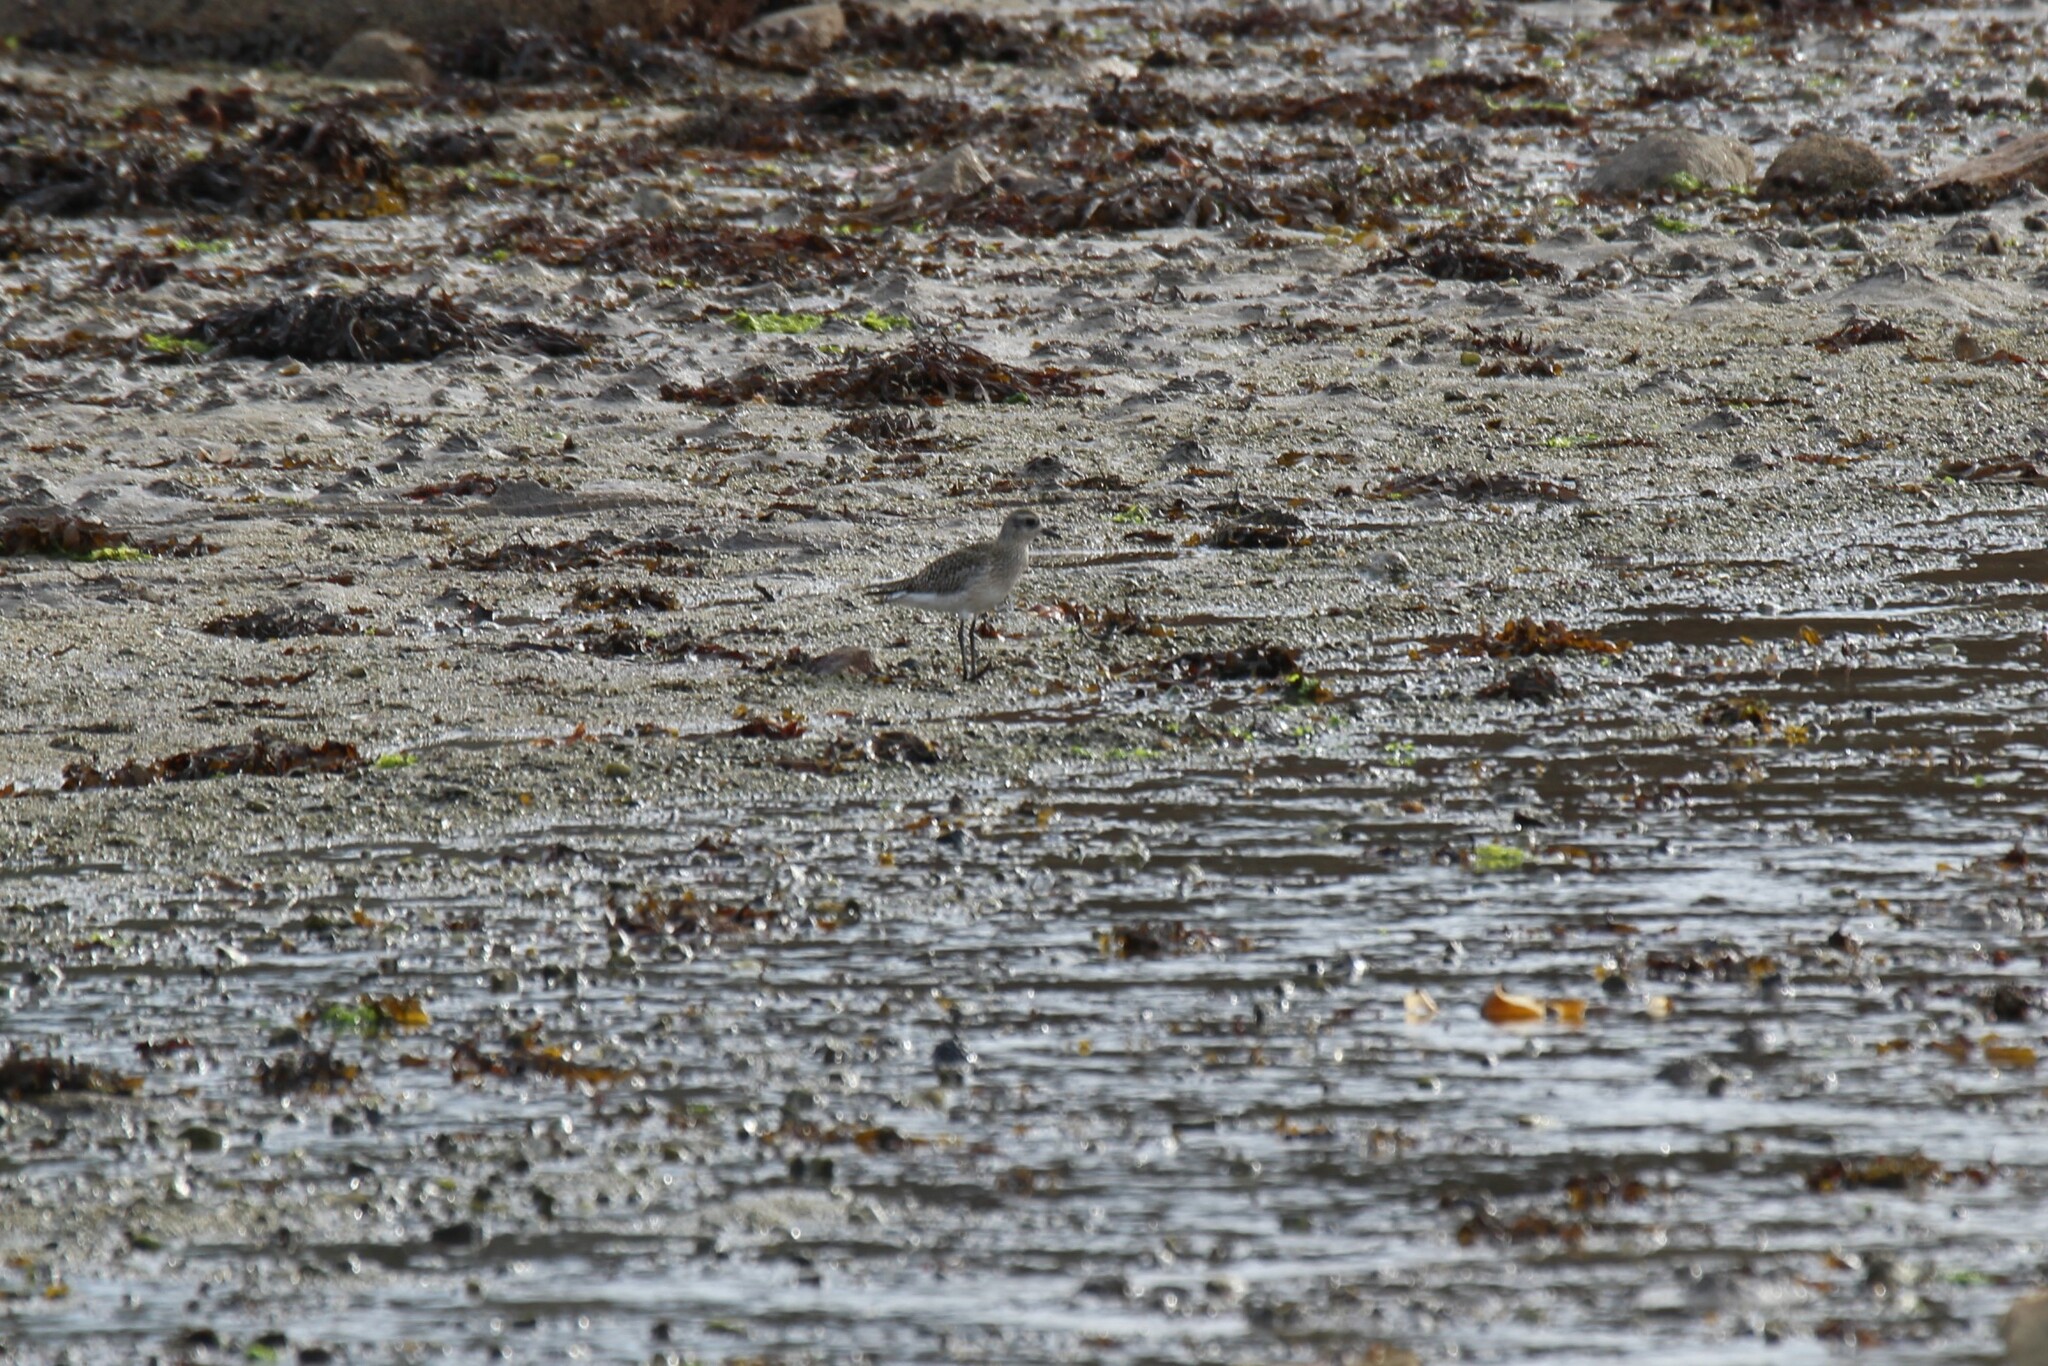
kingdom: Animalia
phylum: Chordata
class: Aves
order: Charadriiformes
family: Charadriidae
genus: Pluvialis
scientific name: Pluvialis squatarola
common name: Grey plover
